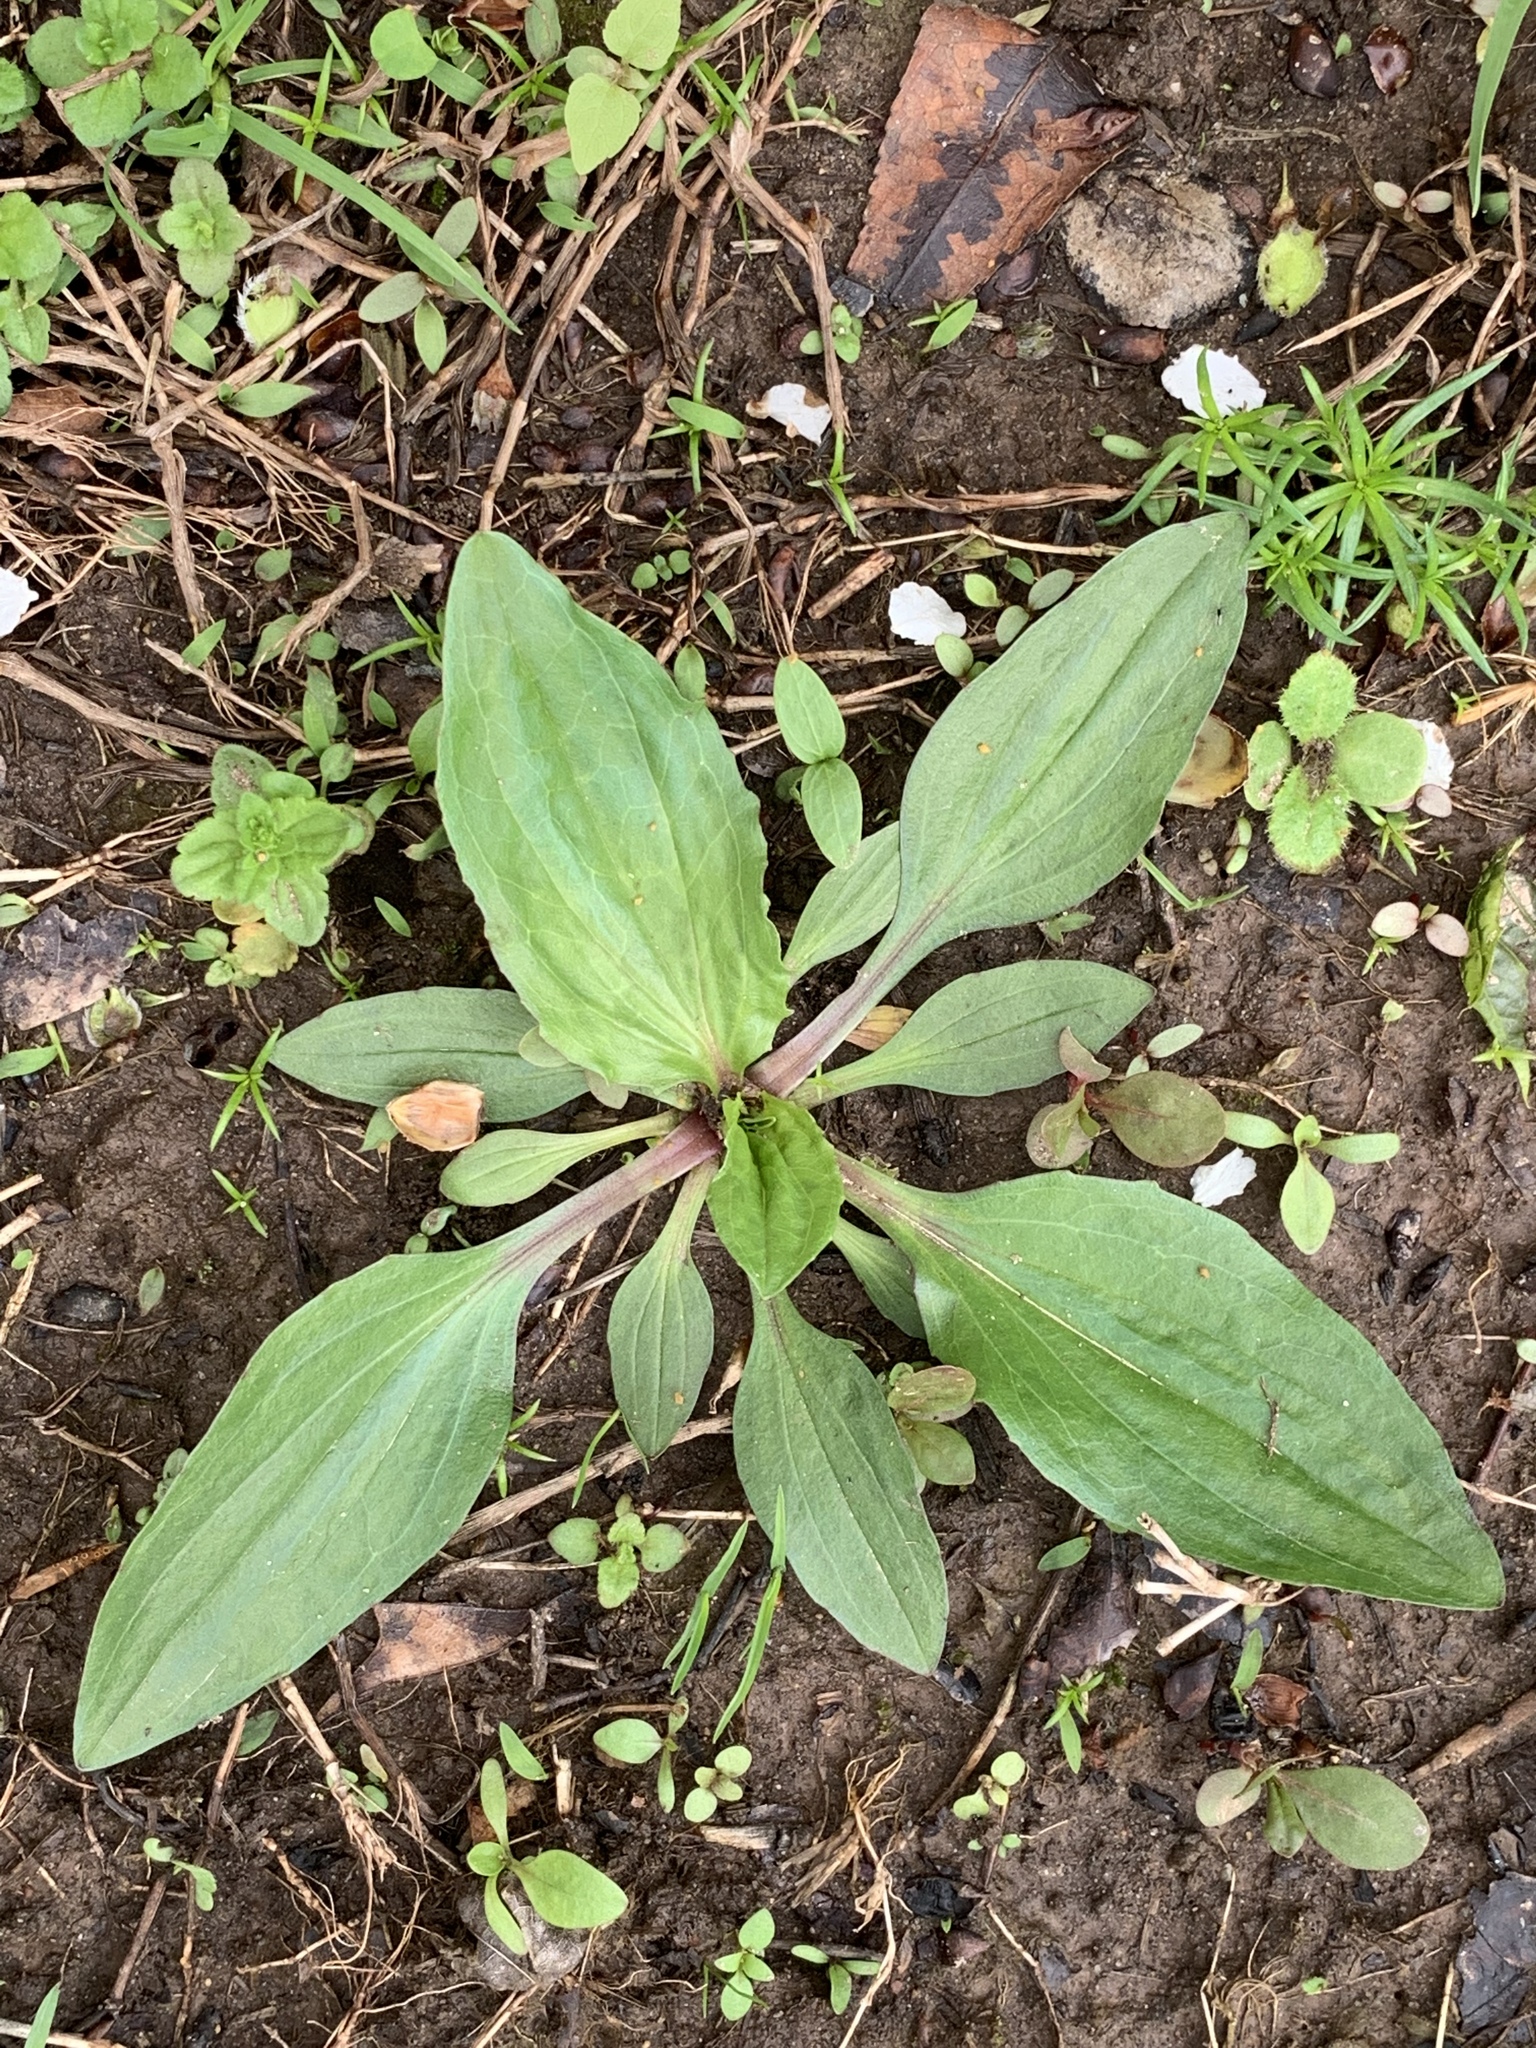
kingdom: Plantae
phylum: Tracheophyta
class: Magnoliopsida
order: Lamiales
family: Plantaginaceae
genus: Plantago
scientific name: Plantago rugelii
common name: American plantain
